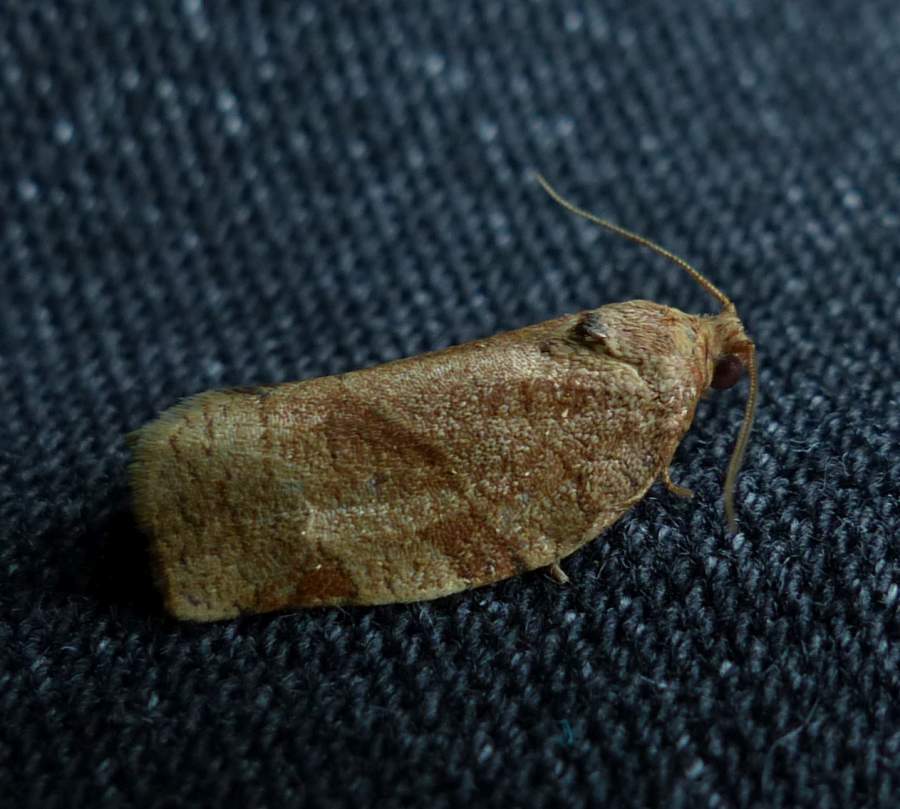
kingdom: Animalia
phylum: Arthropoda
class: Insecta
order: Lepidoptera
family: Tortricidae
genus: Choristoneura
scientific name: Choristoneura rosaceana
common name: Oblique-banded leafroller moth
